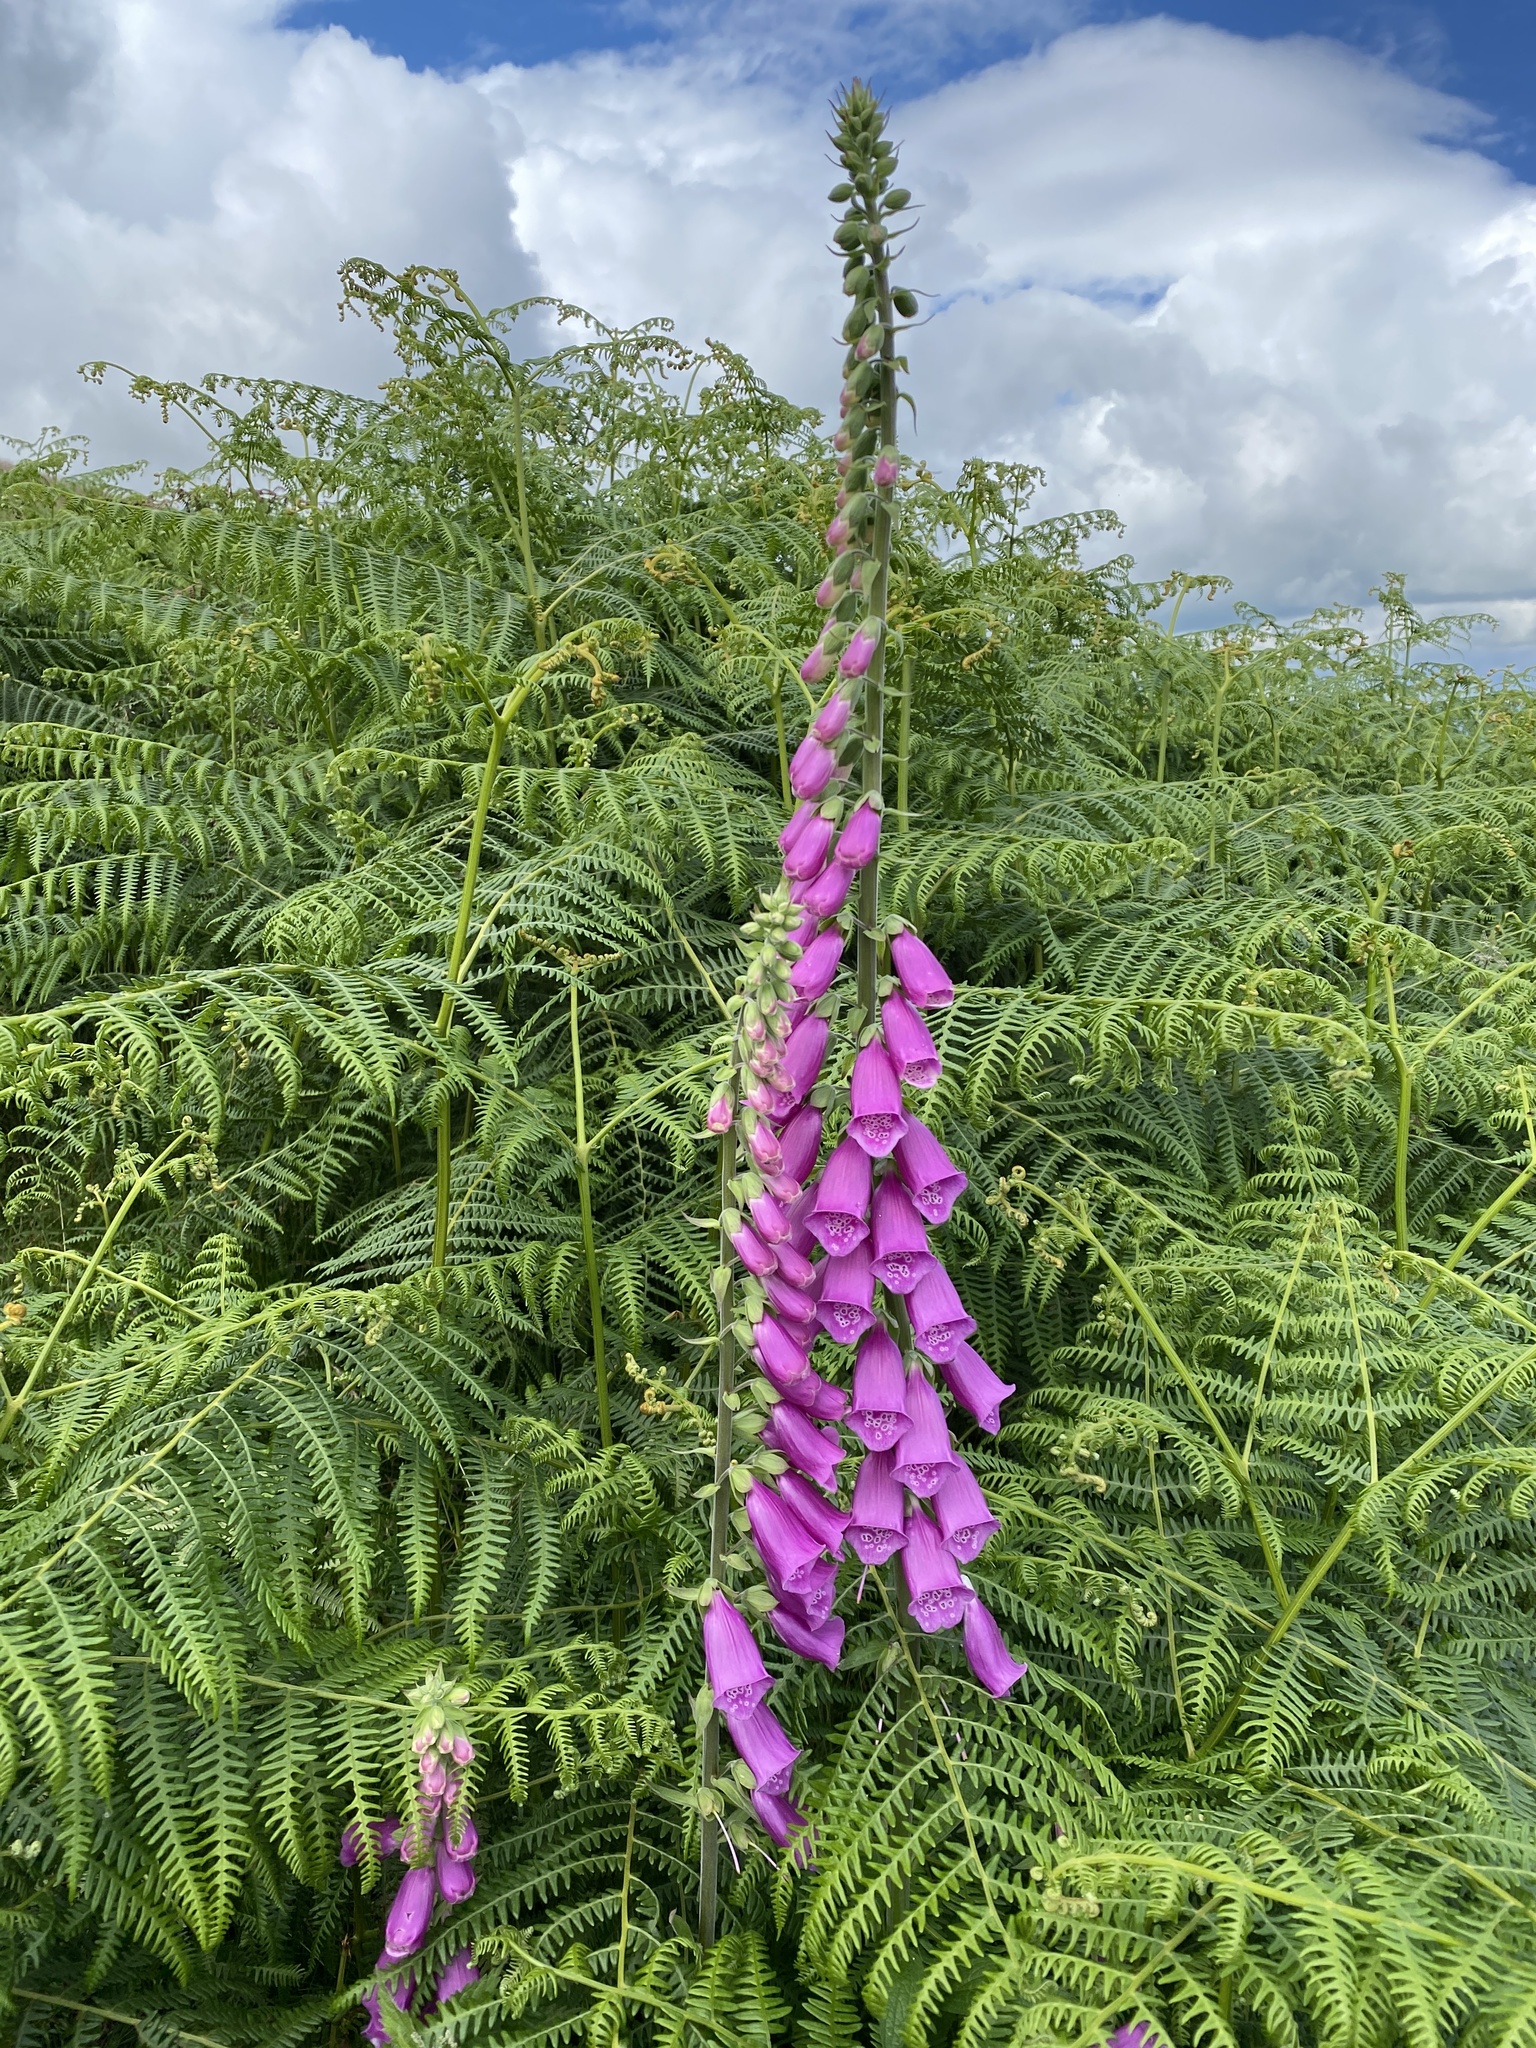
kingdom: Plantae
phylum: Tracheophyta
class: Magnoliopsida
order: Lamiales
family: Plantaginaceae
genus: Digitalis
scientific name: Digitalis purpurea
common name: Foxglove
